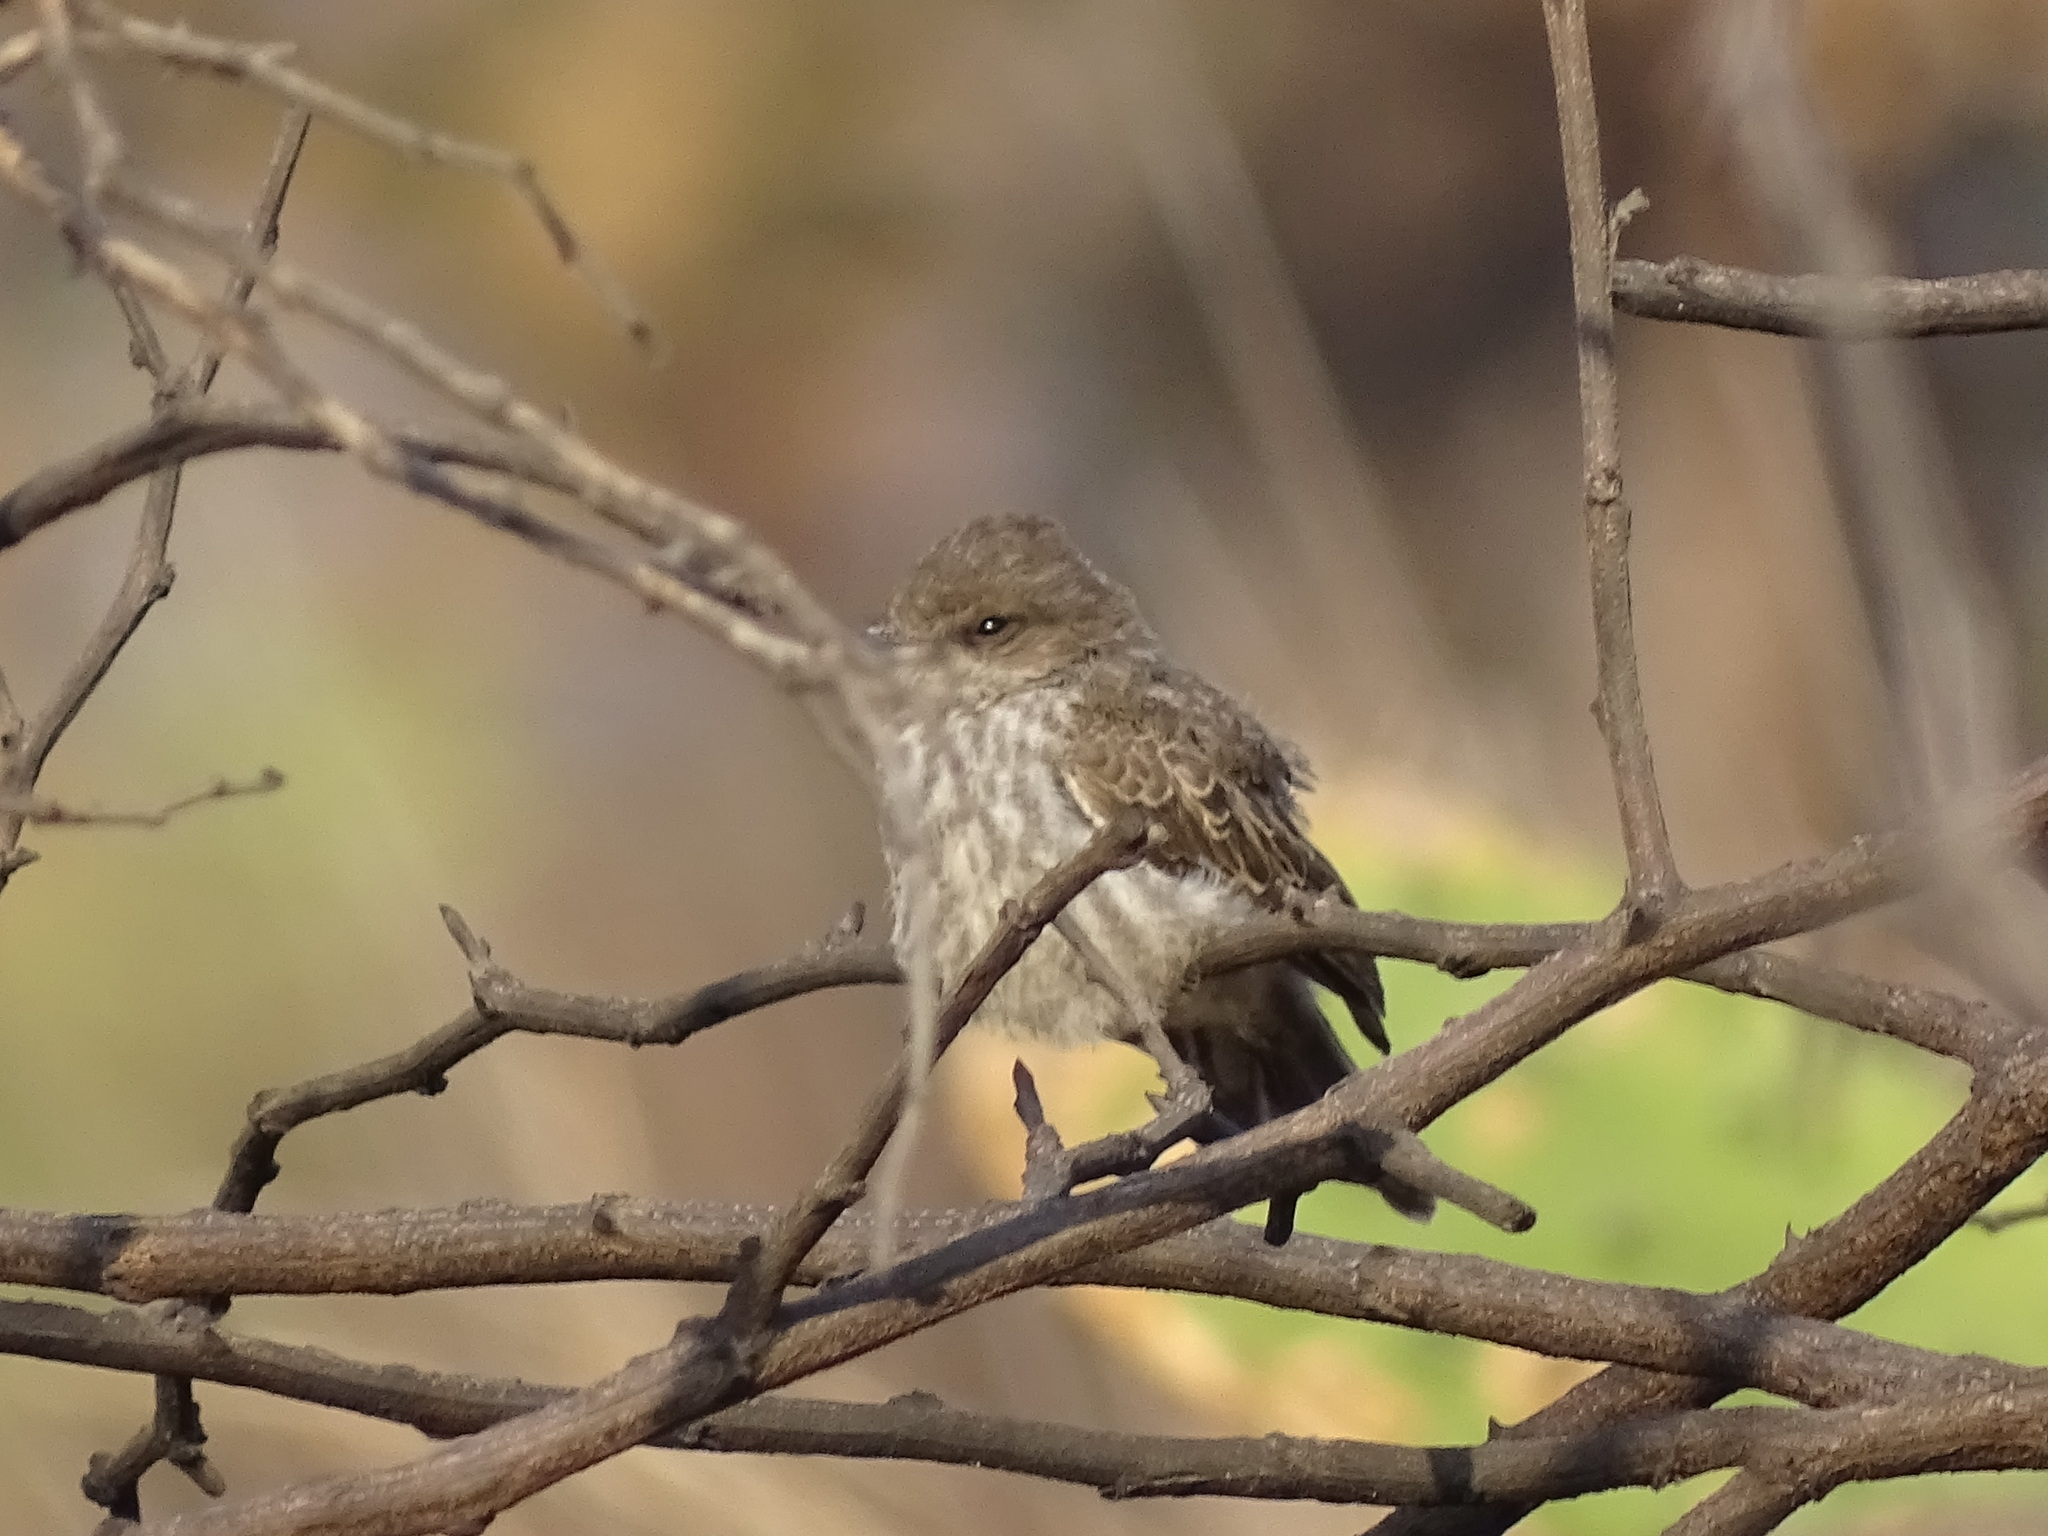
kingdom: Animalia
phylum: Chordata
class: Aves
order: Passeriformes
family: Tyrannidae
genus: Pyrocephalus
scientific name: Pyrocephalus rubinus
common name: Vermilion flycatcher
